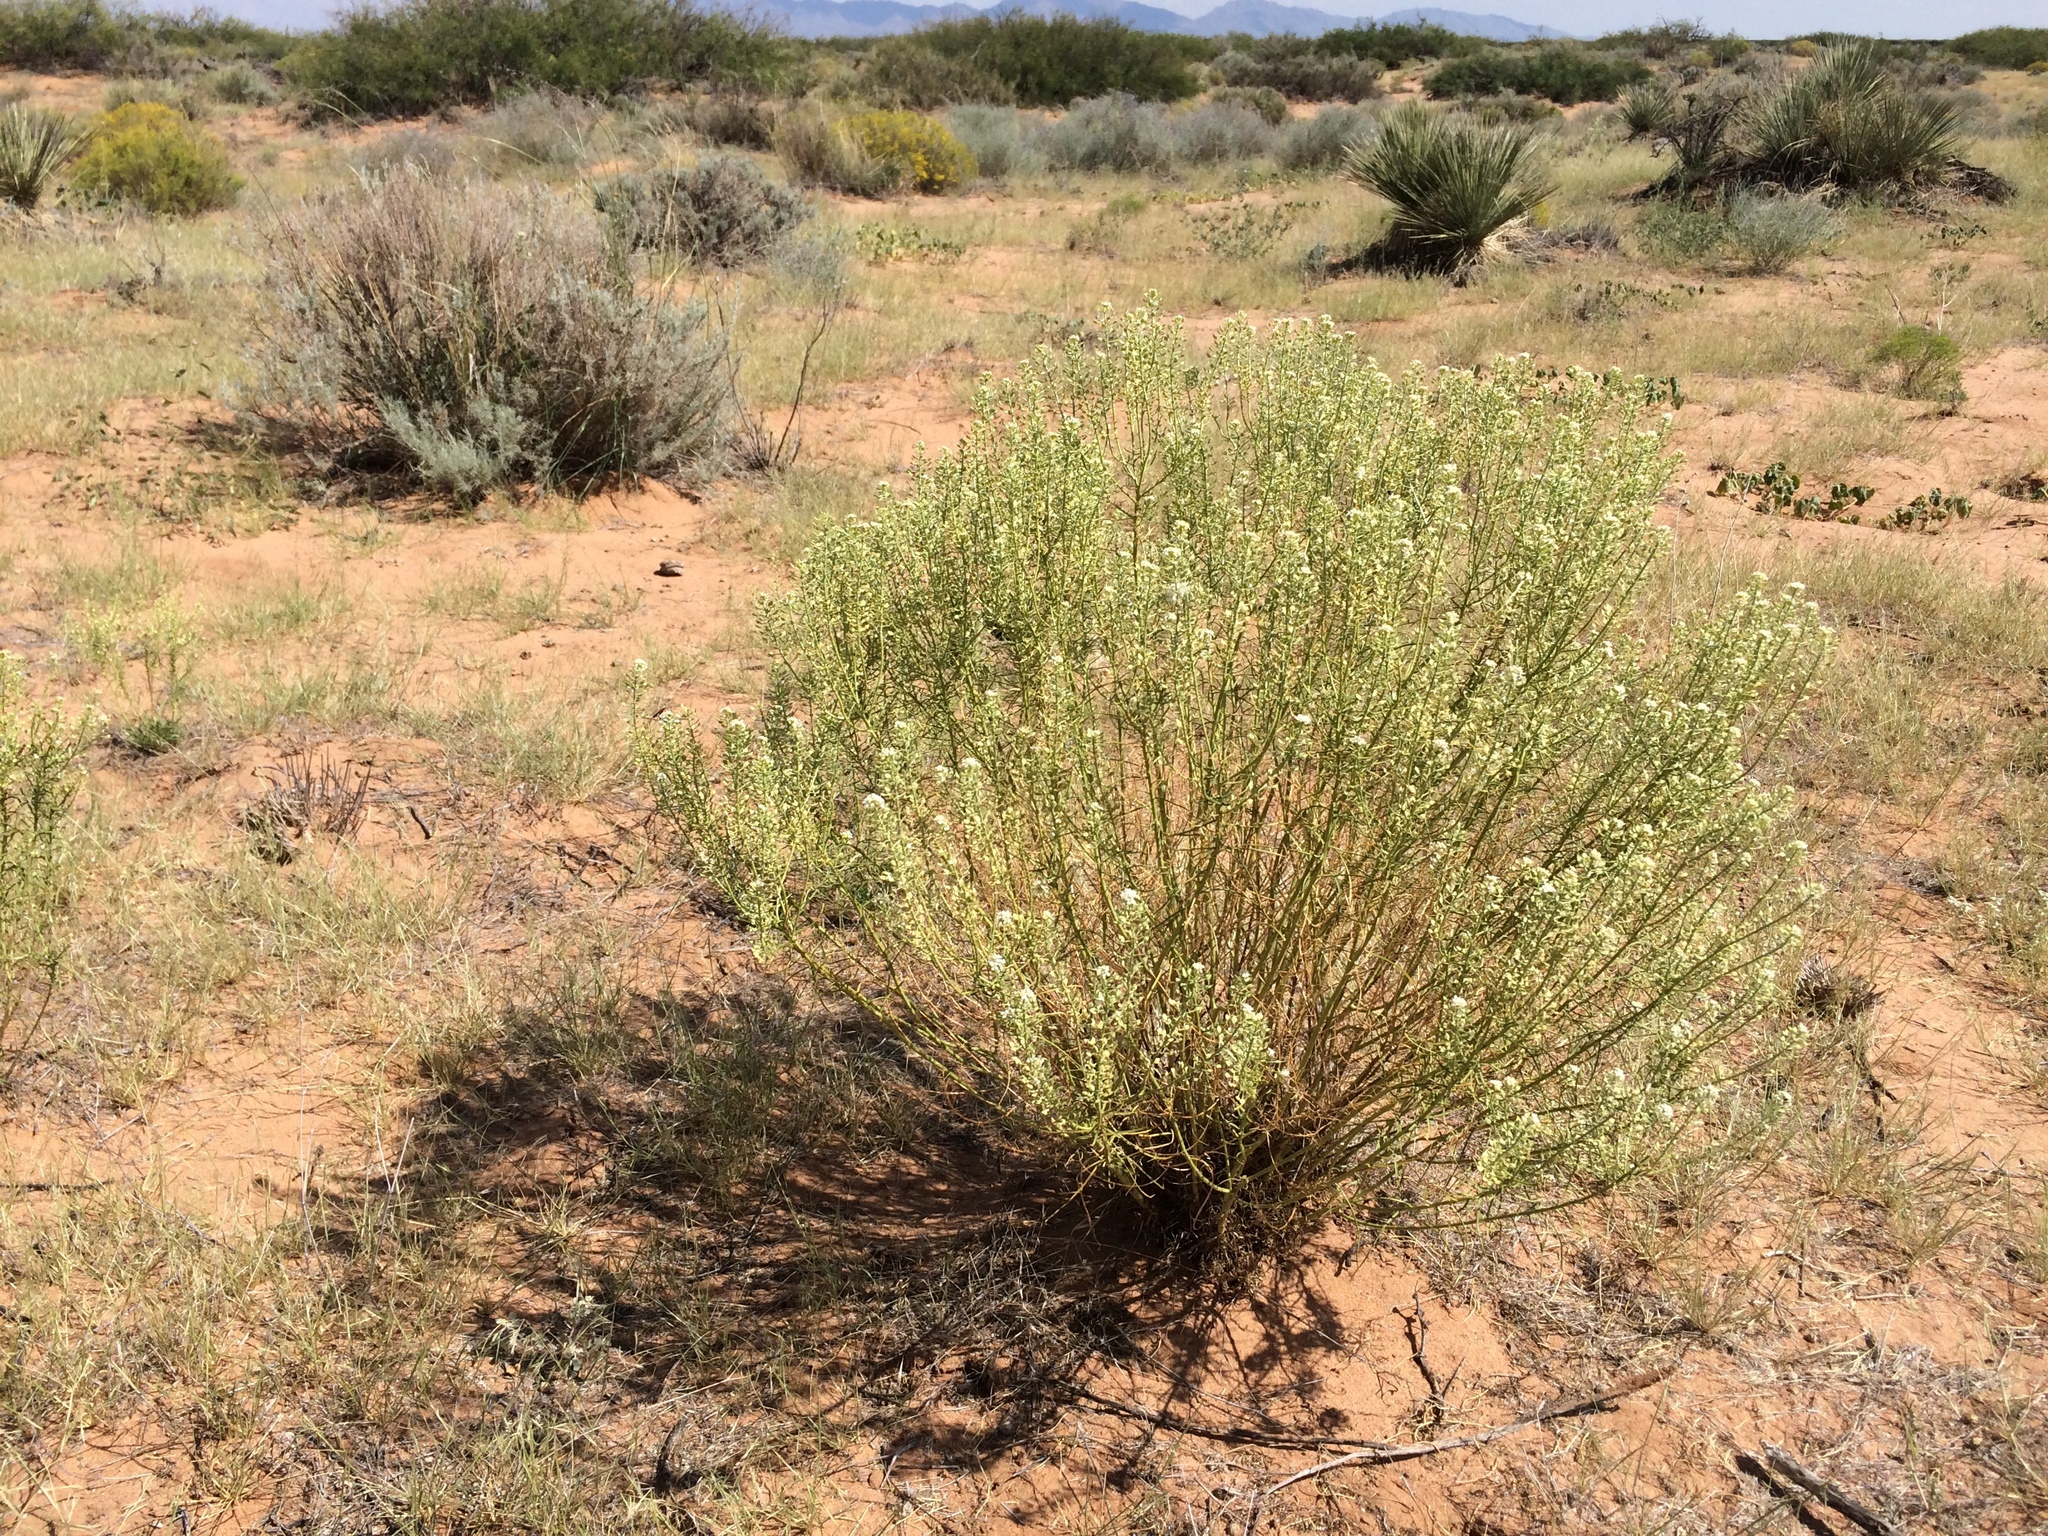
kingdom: Plantae
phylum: Tracheophyta
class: Magnoliopsida
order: Brassicales
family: Brassicaceae
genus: Lepidium
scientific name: Lepidium alyssoides
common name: Mesa pepperweed
